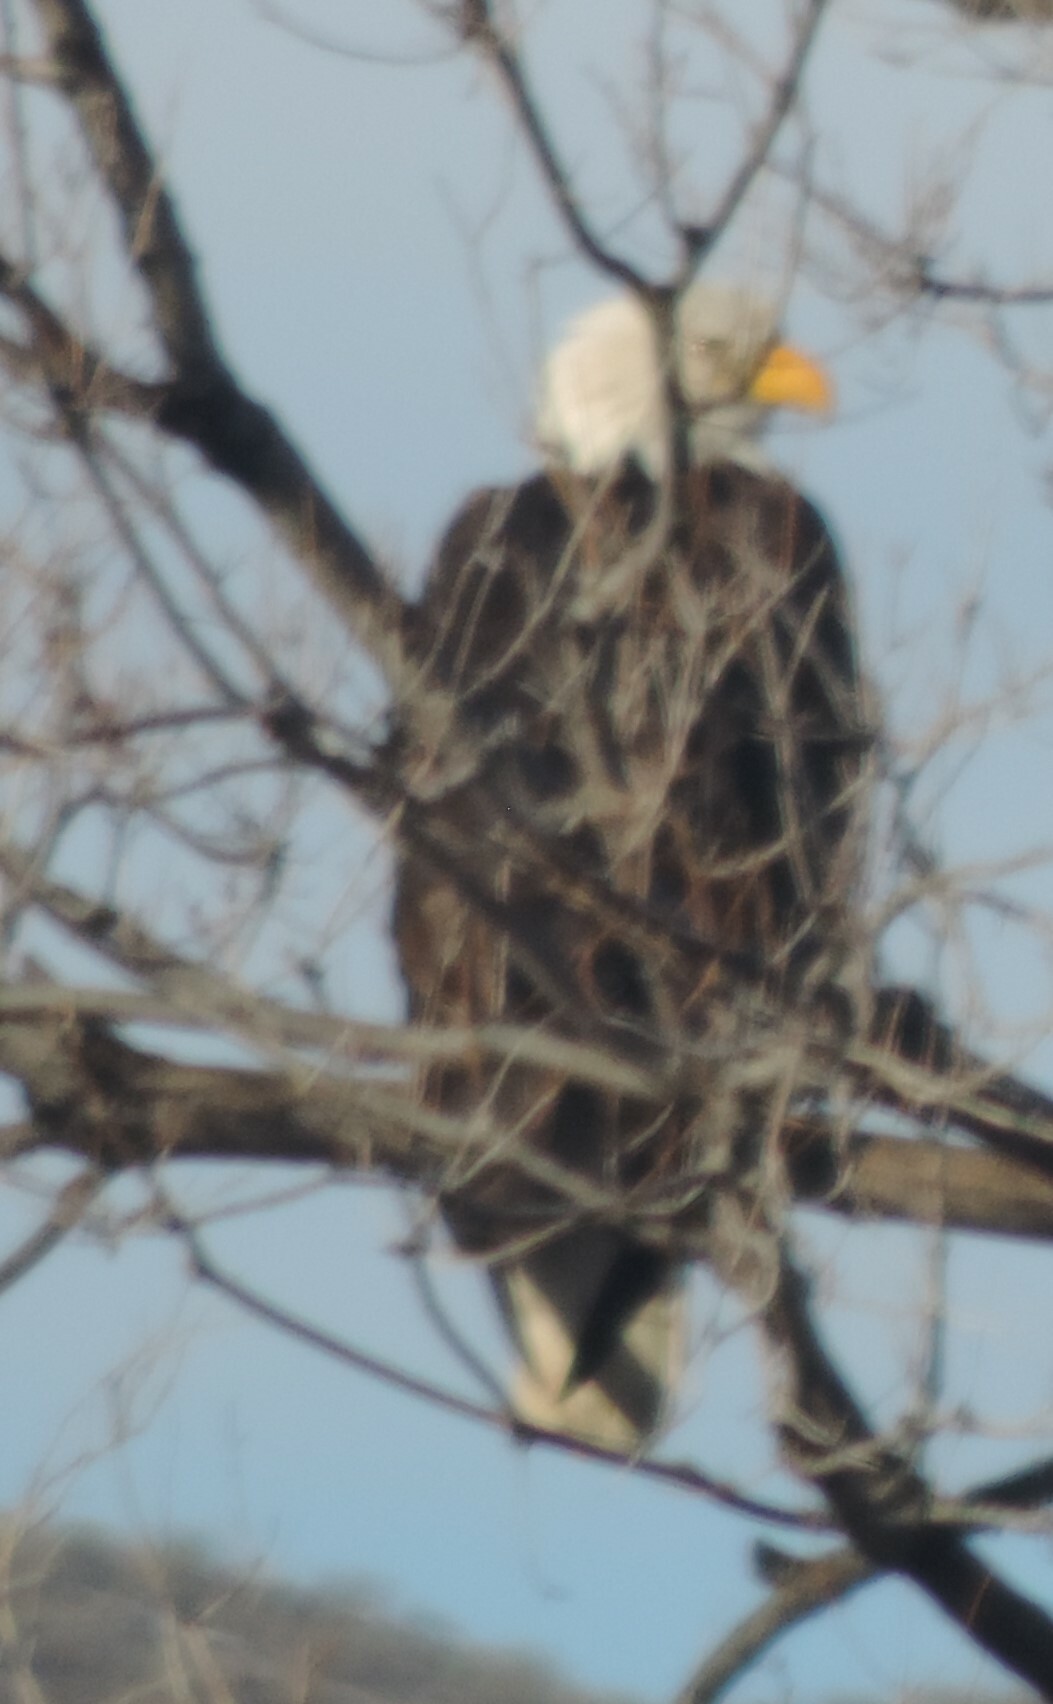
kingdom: Animalia
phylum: Chordata
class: Aves
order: Accipitriformes
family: Accipitridae
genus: Haliaeetus
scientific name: Haliaeetus leucocephalus
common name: Bald eagle
